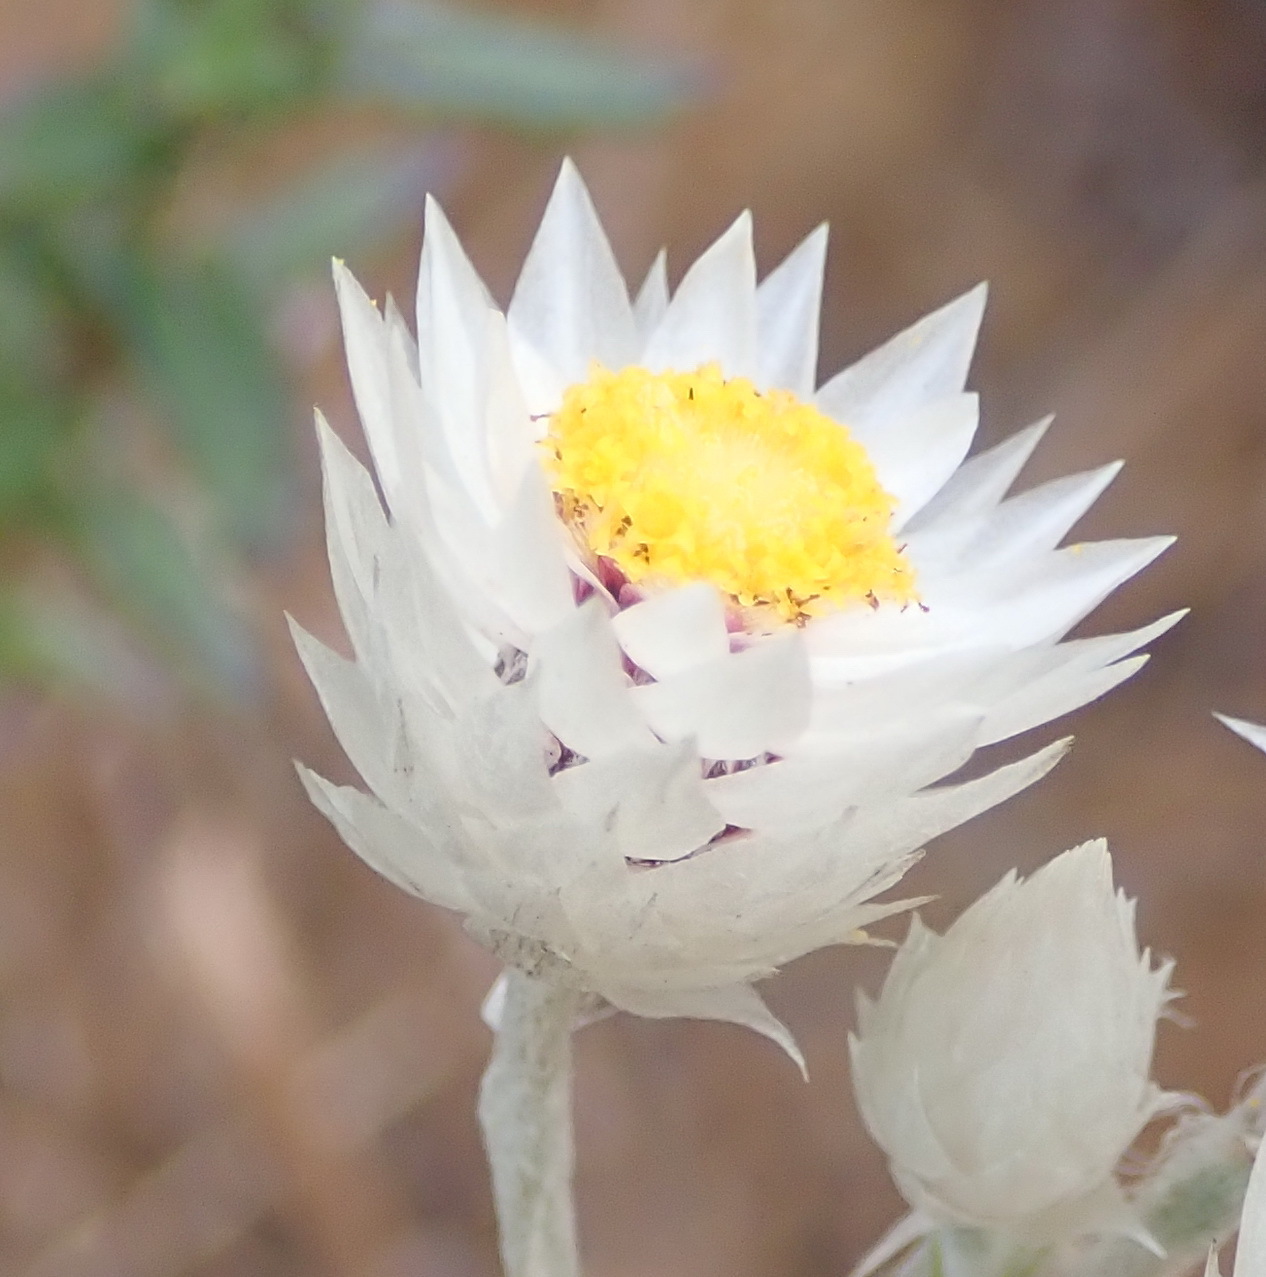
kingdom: Plantae
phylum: Tracheophyta
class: Magnoliopsida
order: Asterales
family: Asteraceae
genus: Achyranthemum
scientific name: Achyranthemum paniculatum
